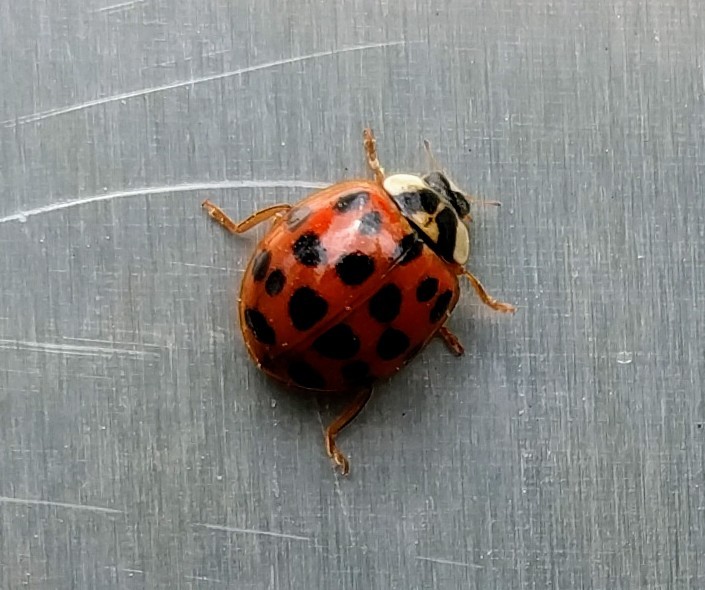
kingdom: Animalia
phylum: Arthropoda
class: Insecta
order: Coleoptera
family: Coccinellidae
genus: Harmonia
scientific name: Harmonia axyridis
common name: Harlequin ladybird
